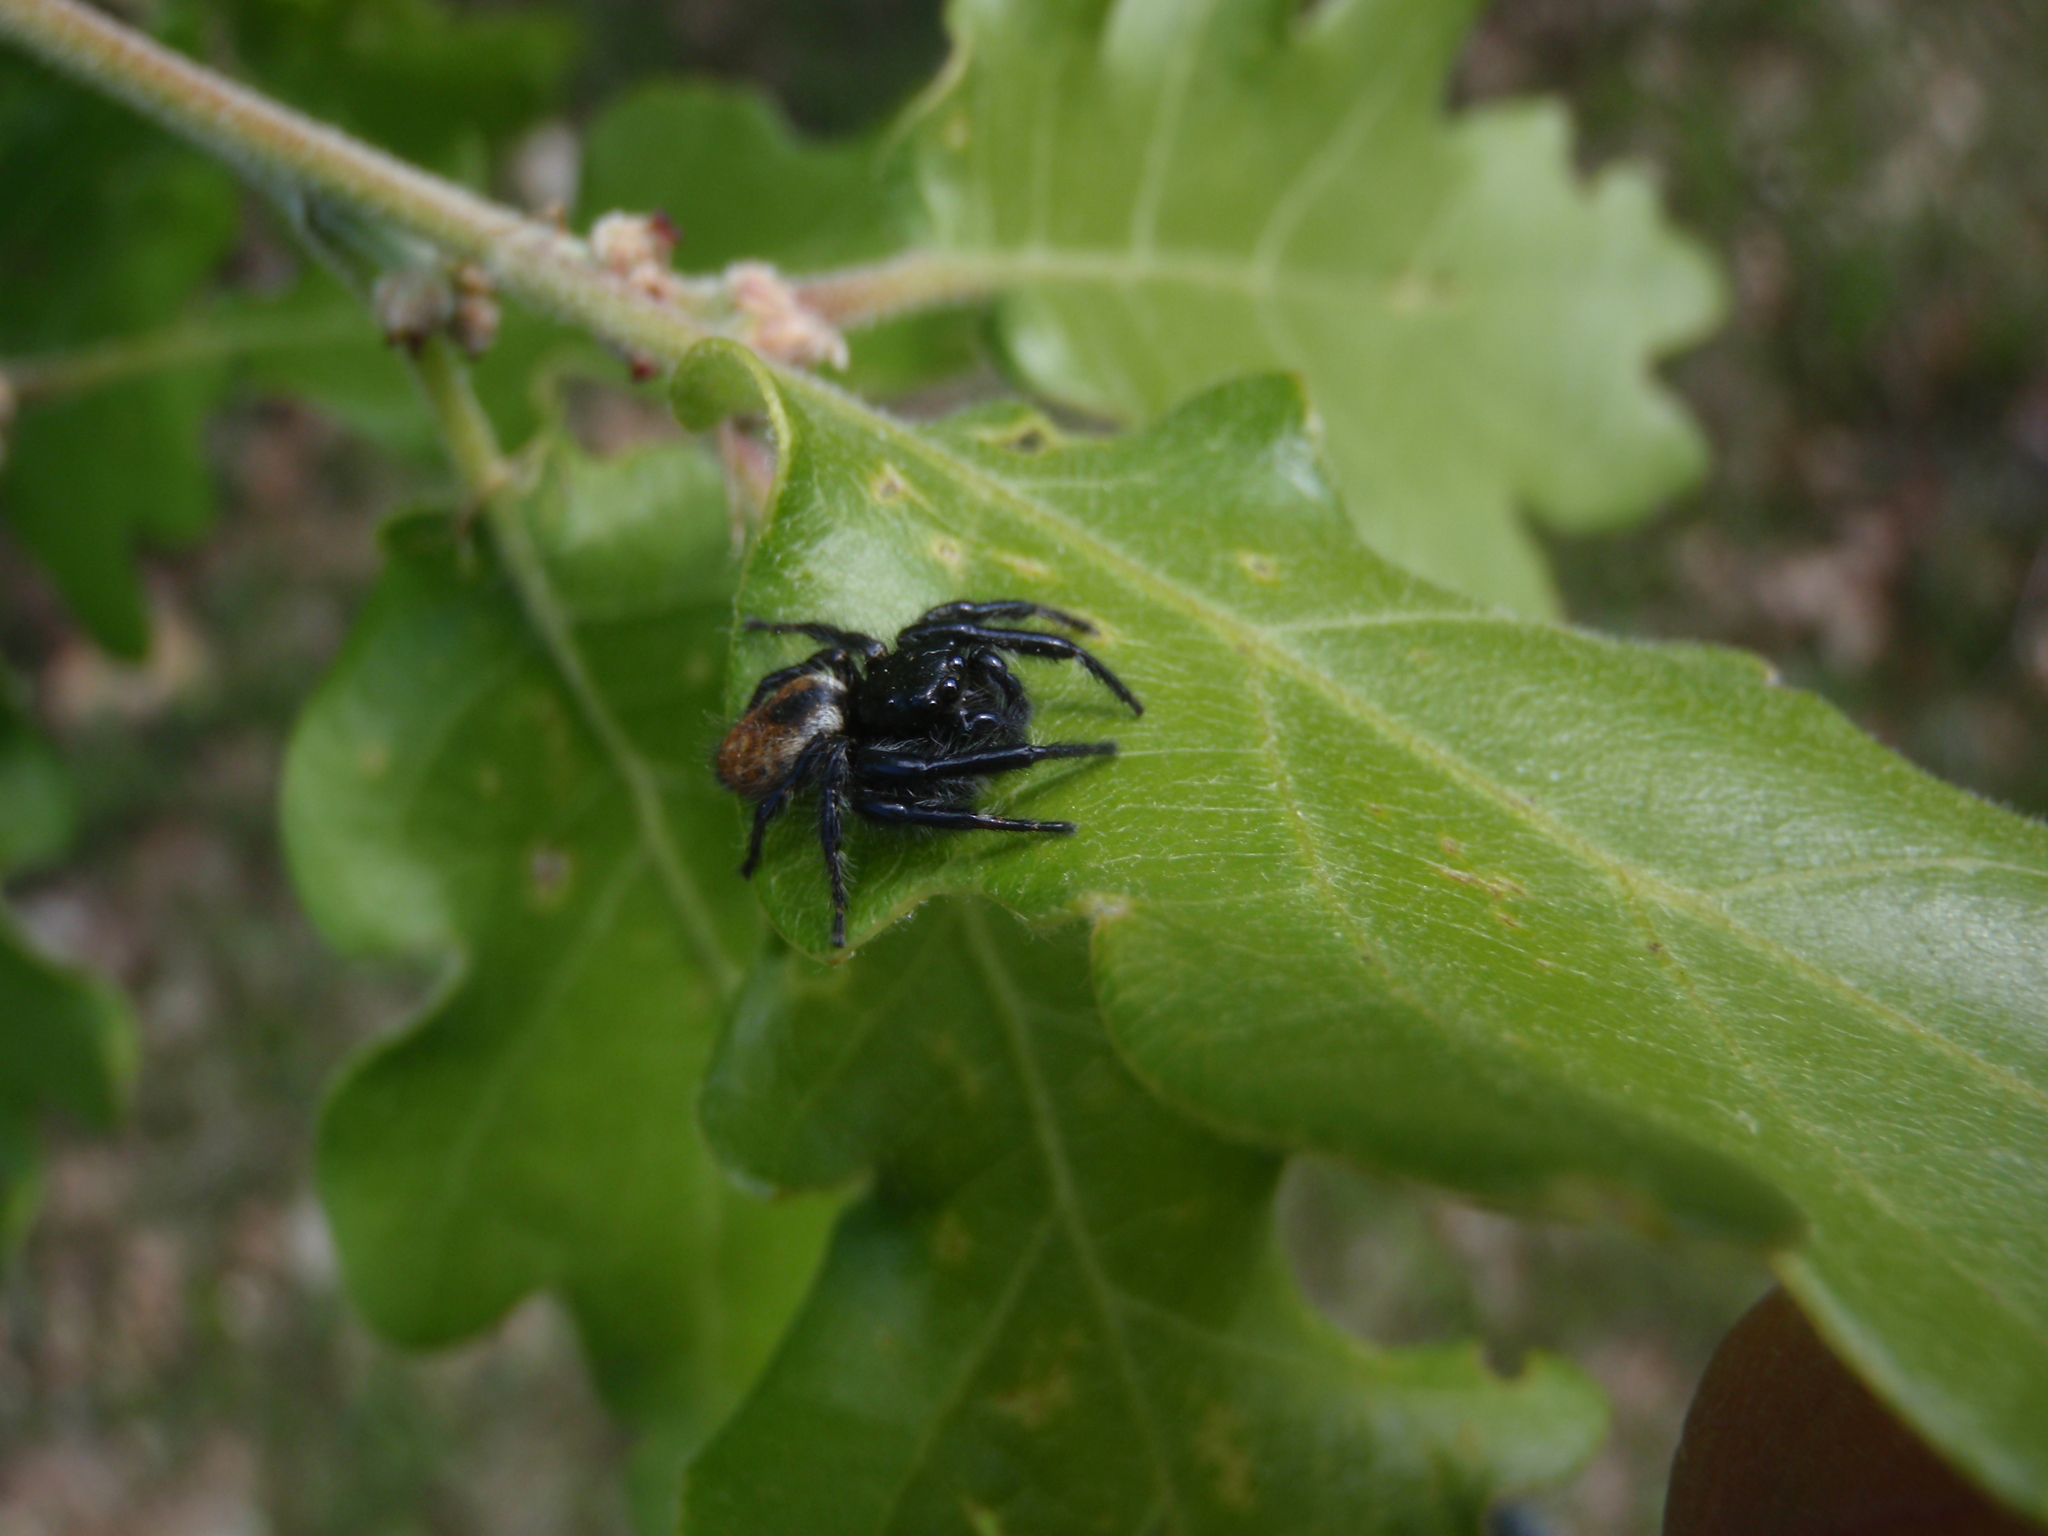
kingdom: Animalia
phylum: Arthropoda
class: Arachnida
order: Araneae
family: Salticidae
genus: Carrhotus
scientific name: Carrhotus xanthogramma
